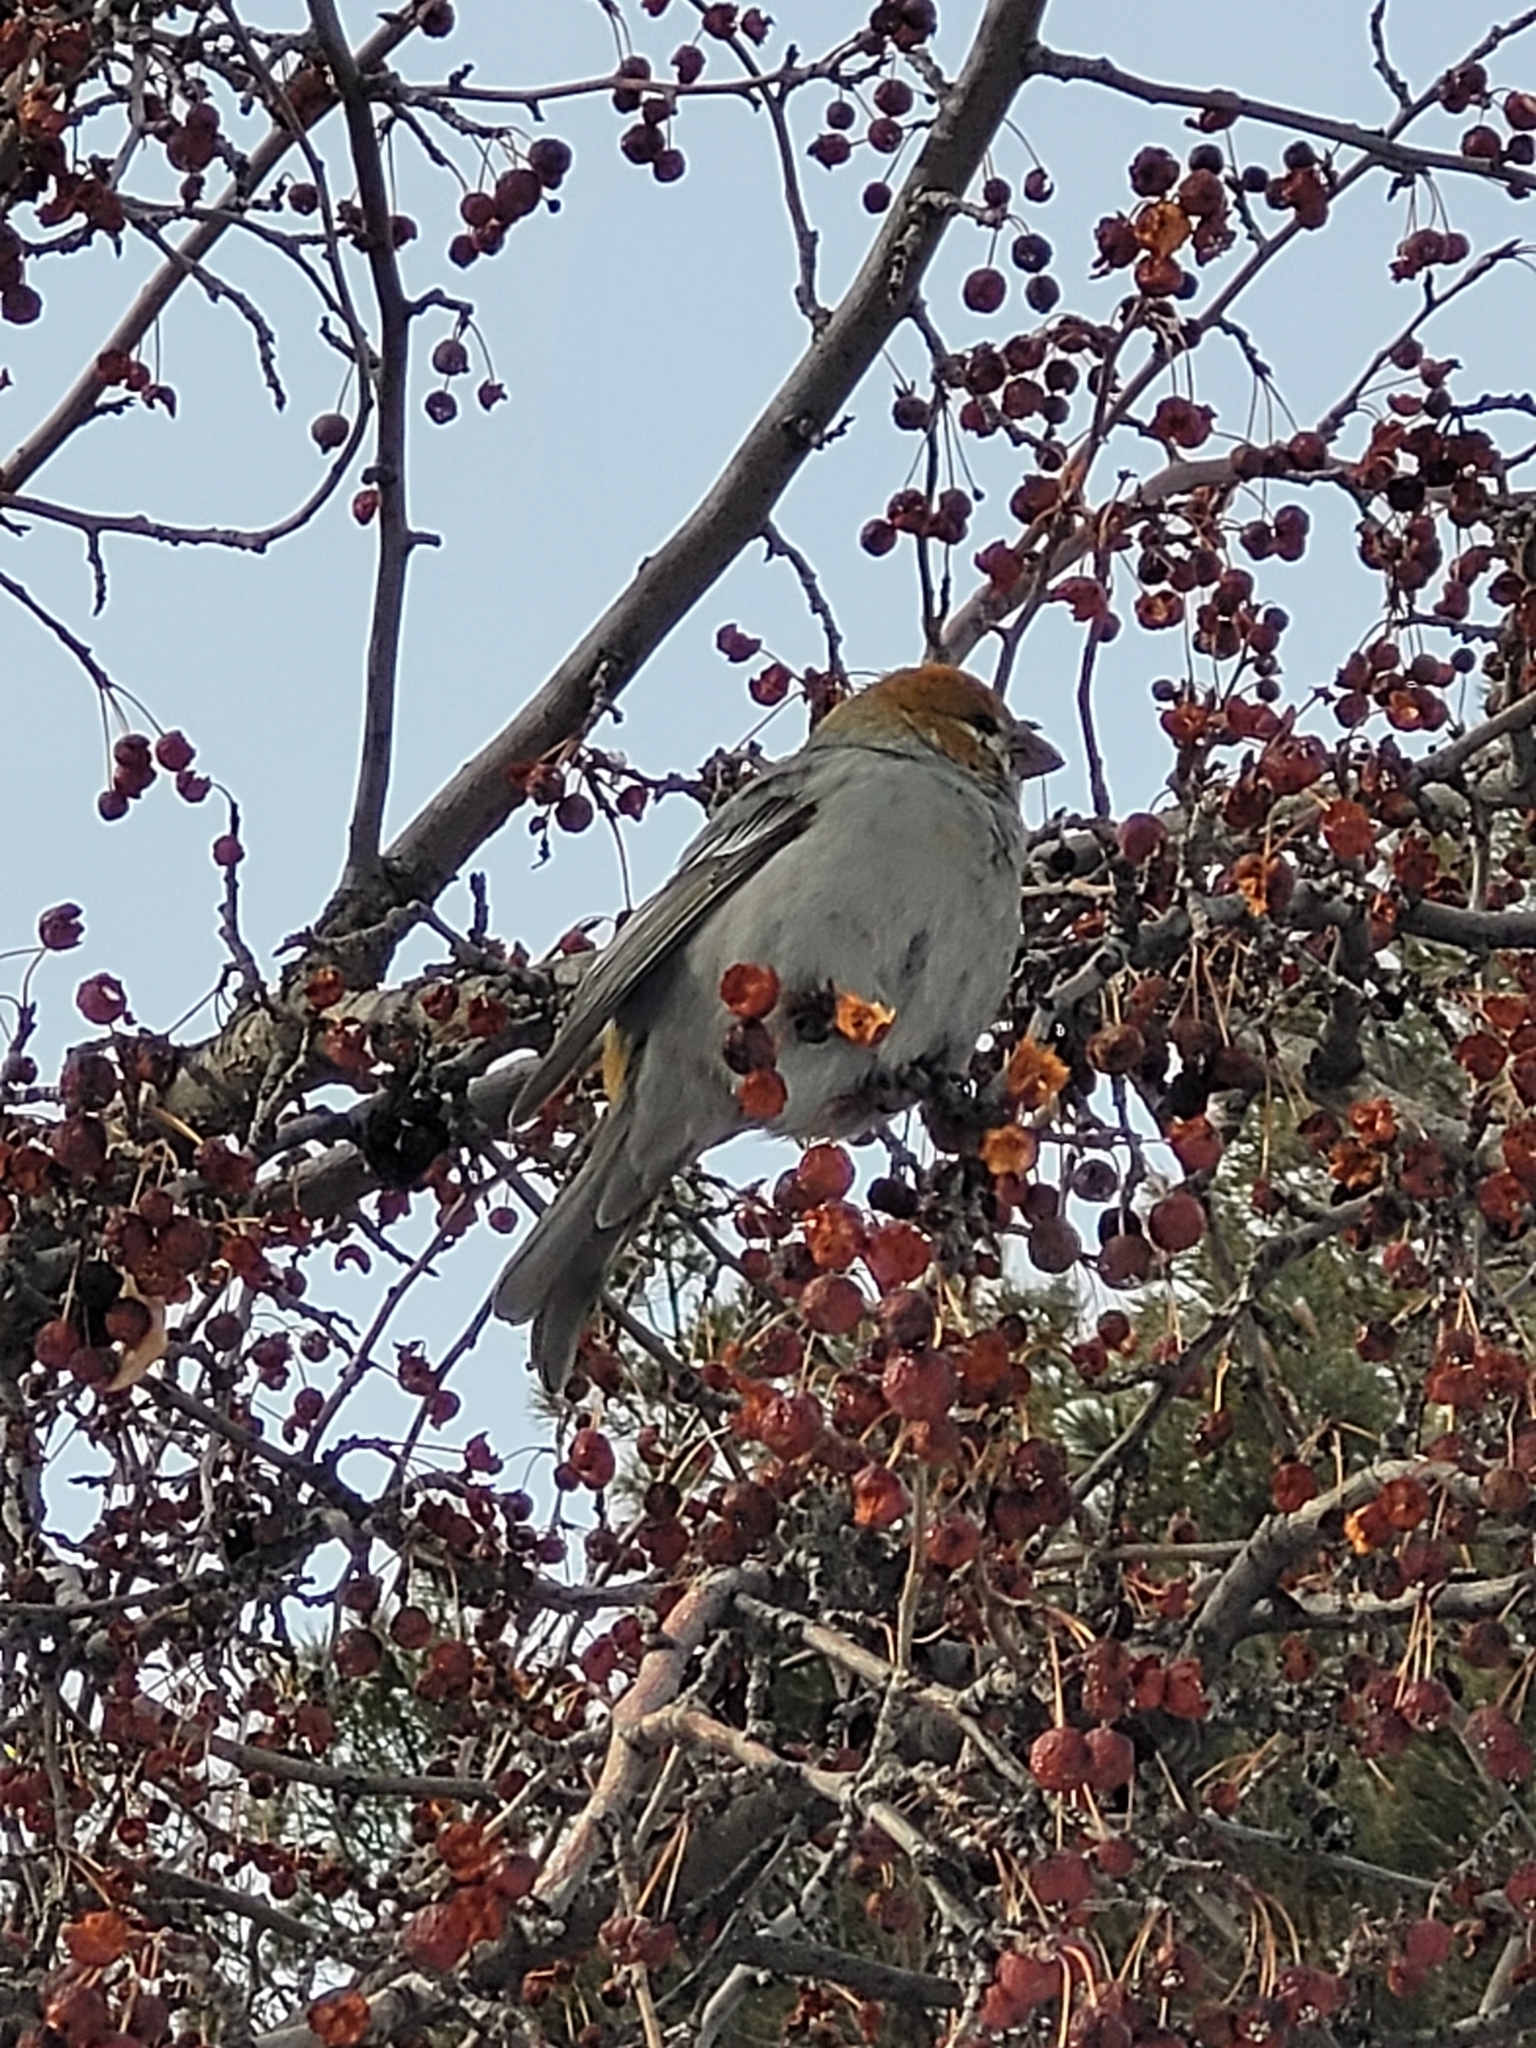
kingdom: Animalia
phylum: Chordata
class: Aves
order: Passeriformes
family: Fringillidae
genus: Pinicola
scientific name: Pinicola enucleator
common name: Pine grosbeak
